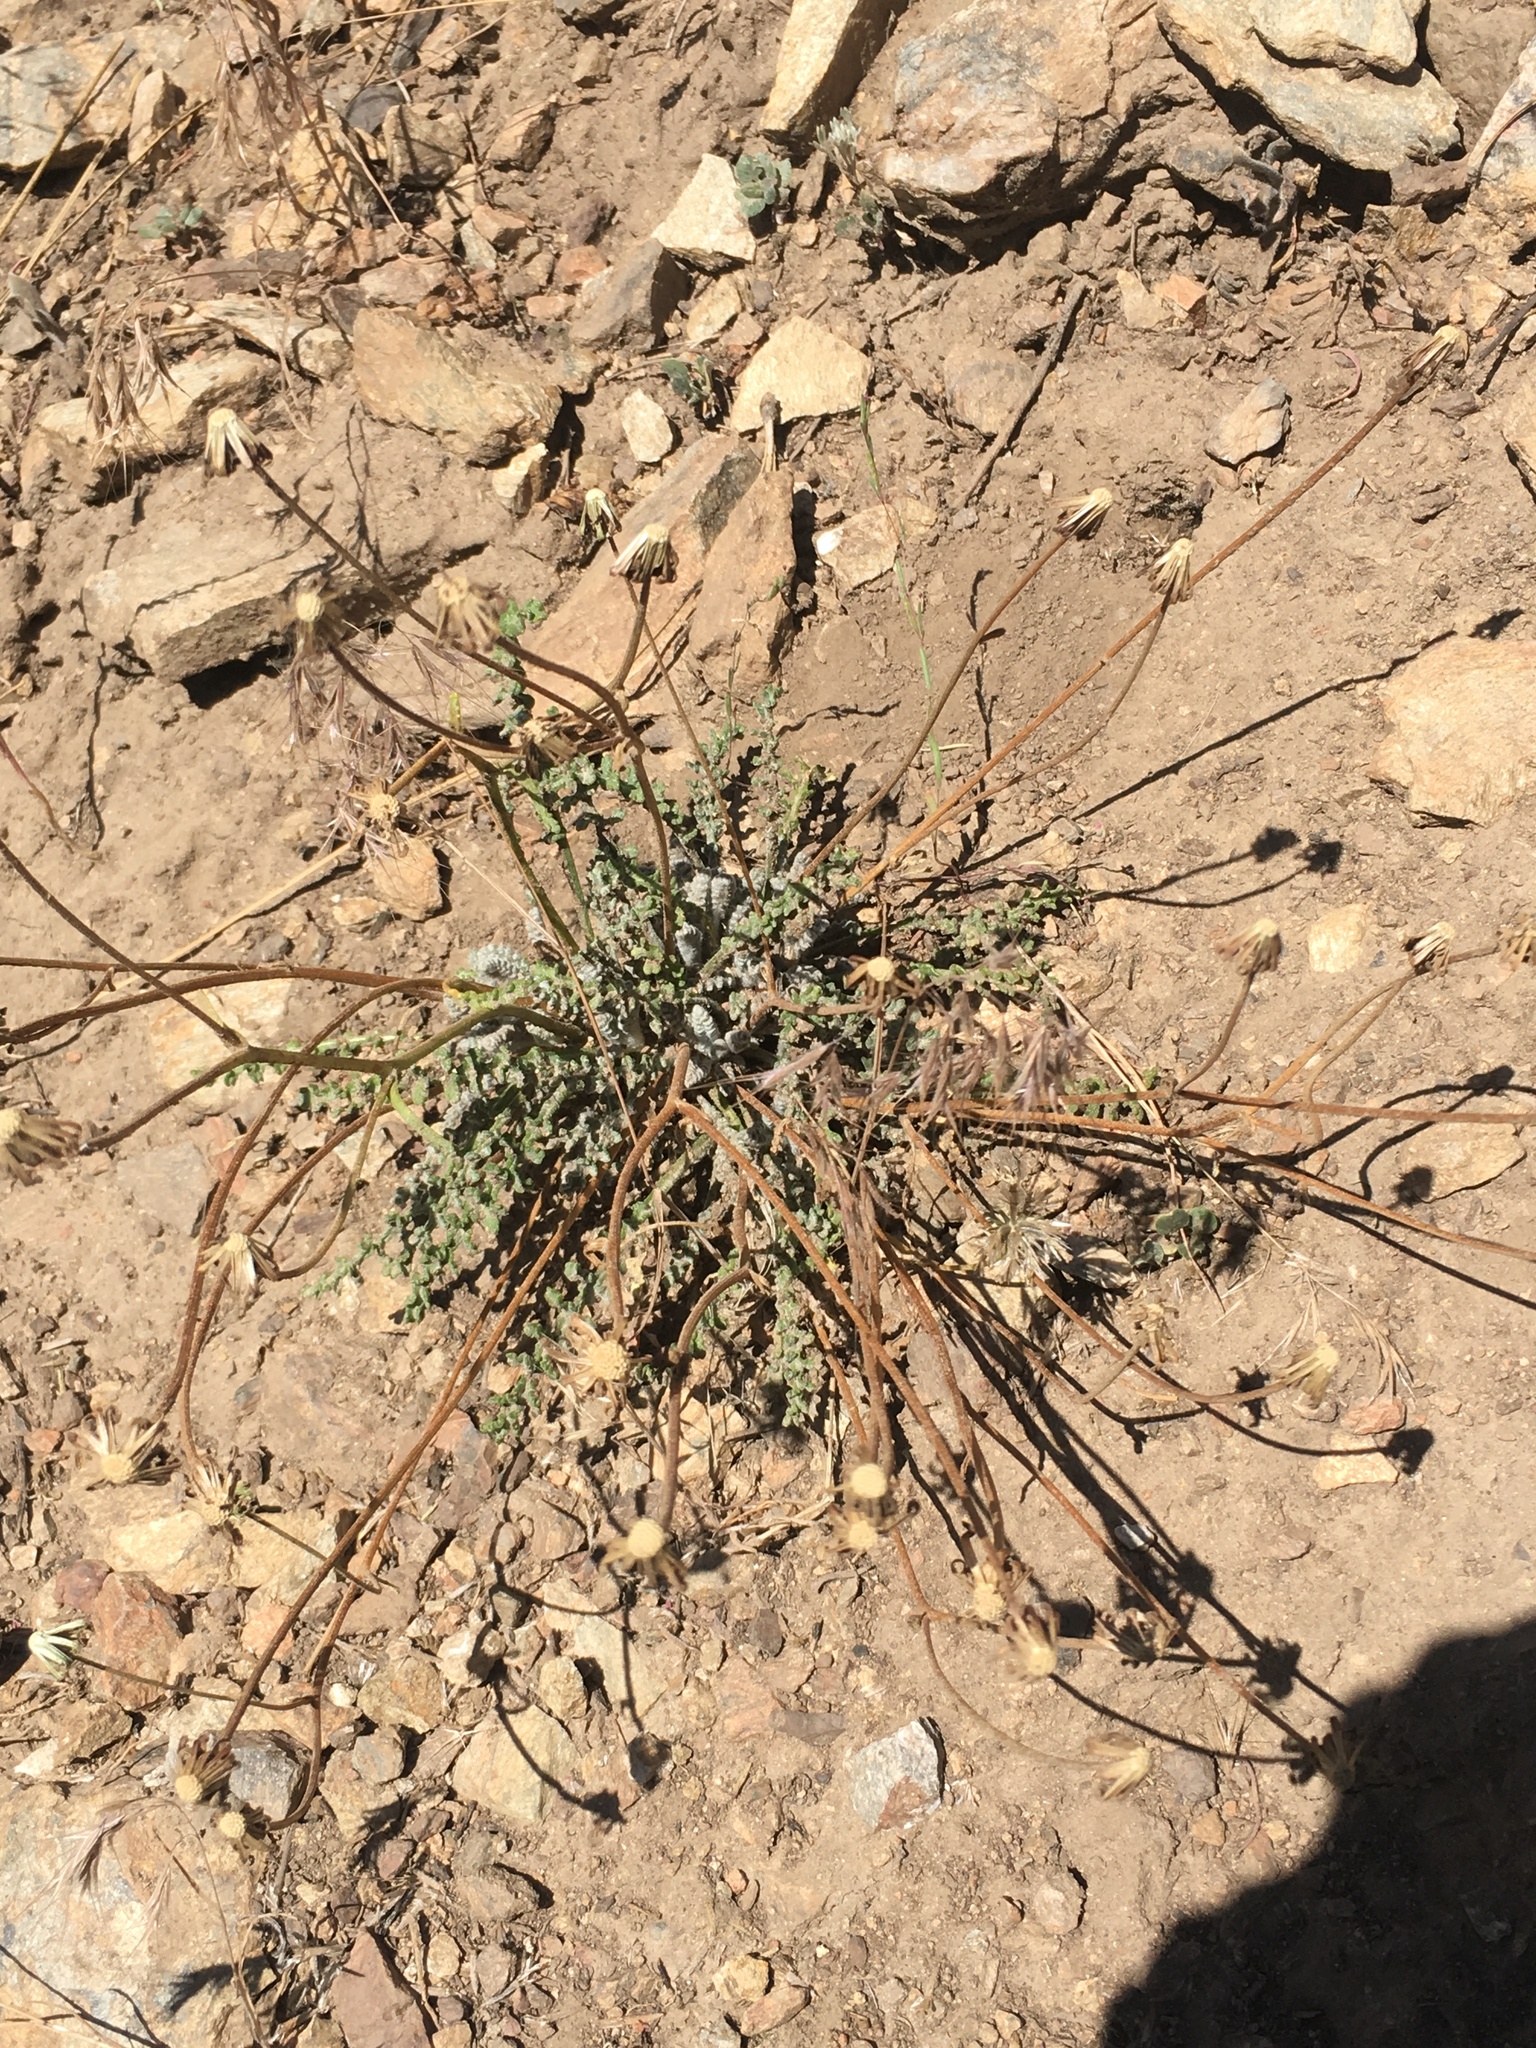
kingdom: Plantae
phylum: Tracheophyta
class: Magnoliopsida
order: Asterales
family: Asteraceae
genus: Chaenactis
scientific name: Chaenactis santolinoides
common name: Santolina pincushion
